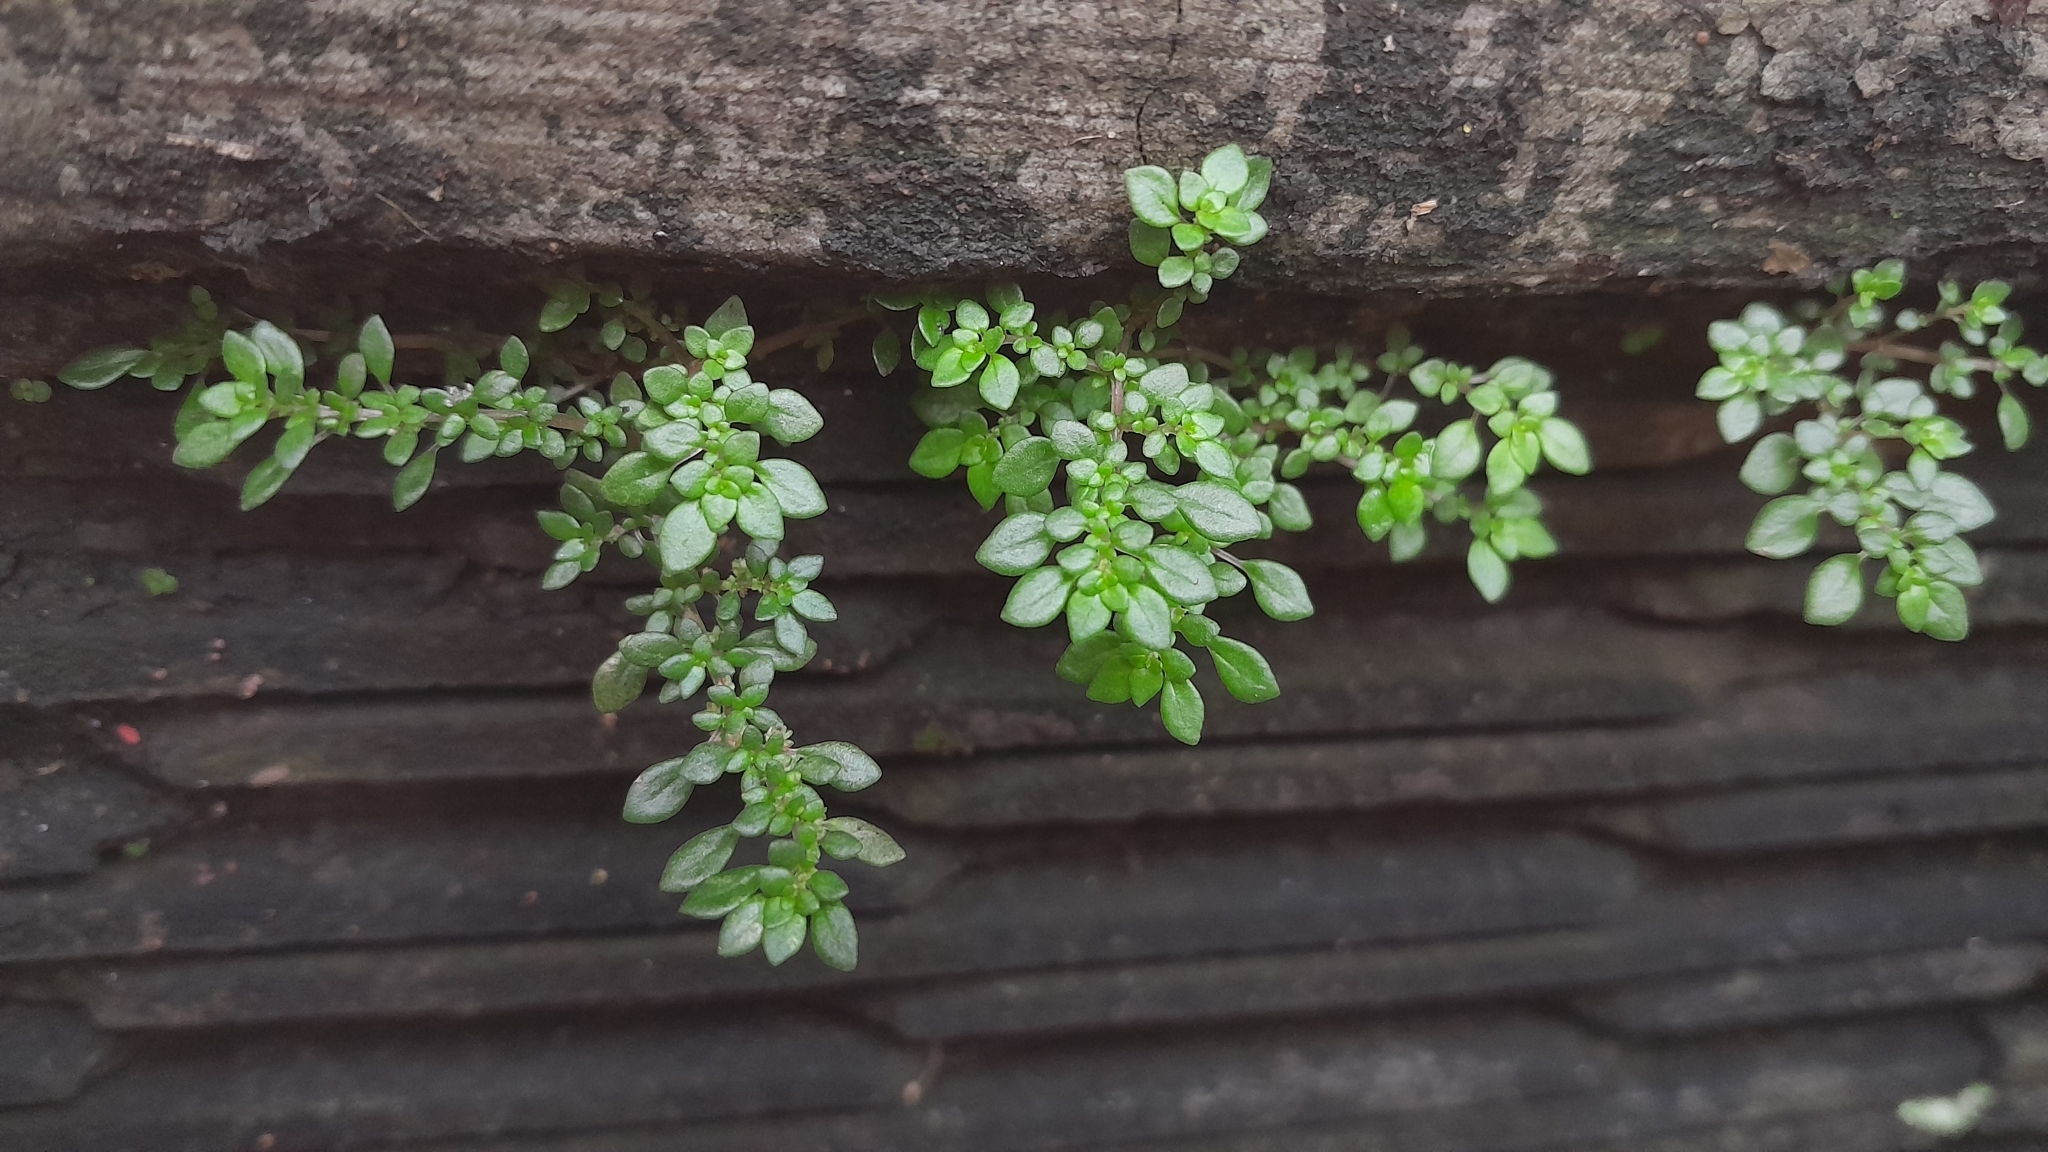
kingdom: Plantae
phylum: Tracheophyta
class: Magnoliopsida
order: Rosales
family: Urticaceae
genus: Pilea
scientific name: Pilea microphylla
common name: Artillery-plant
